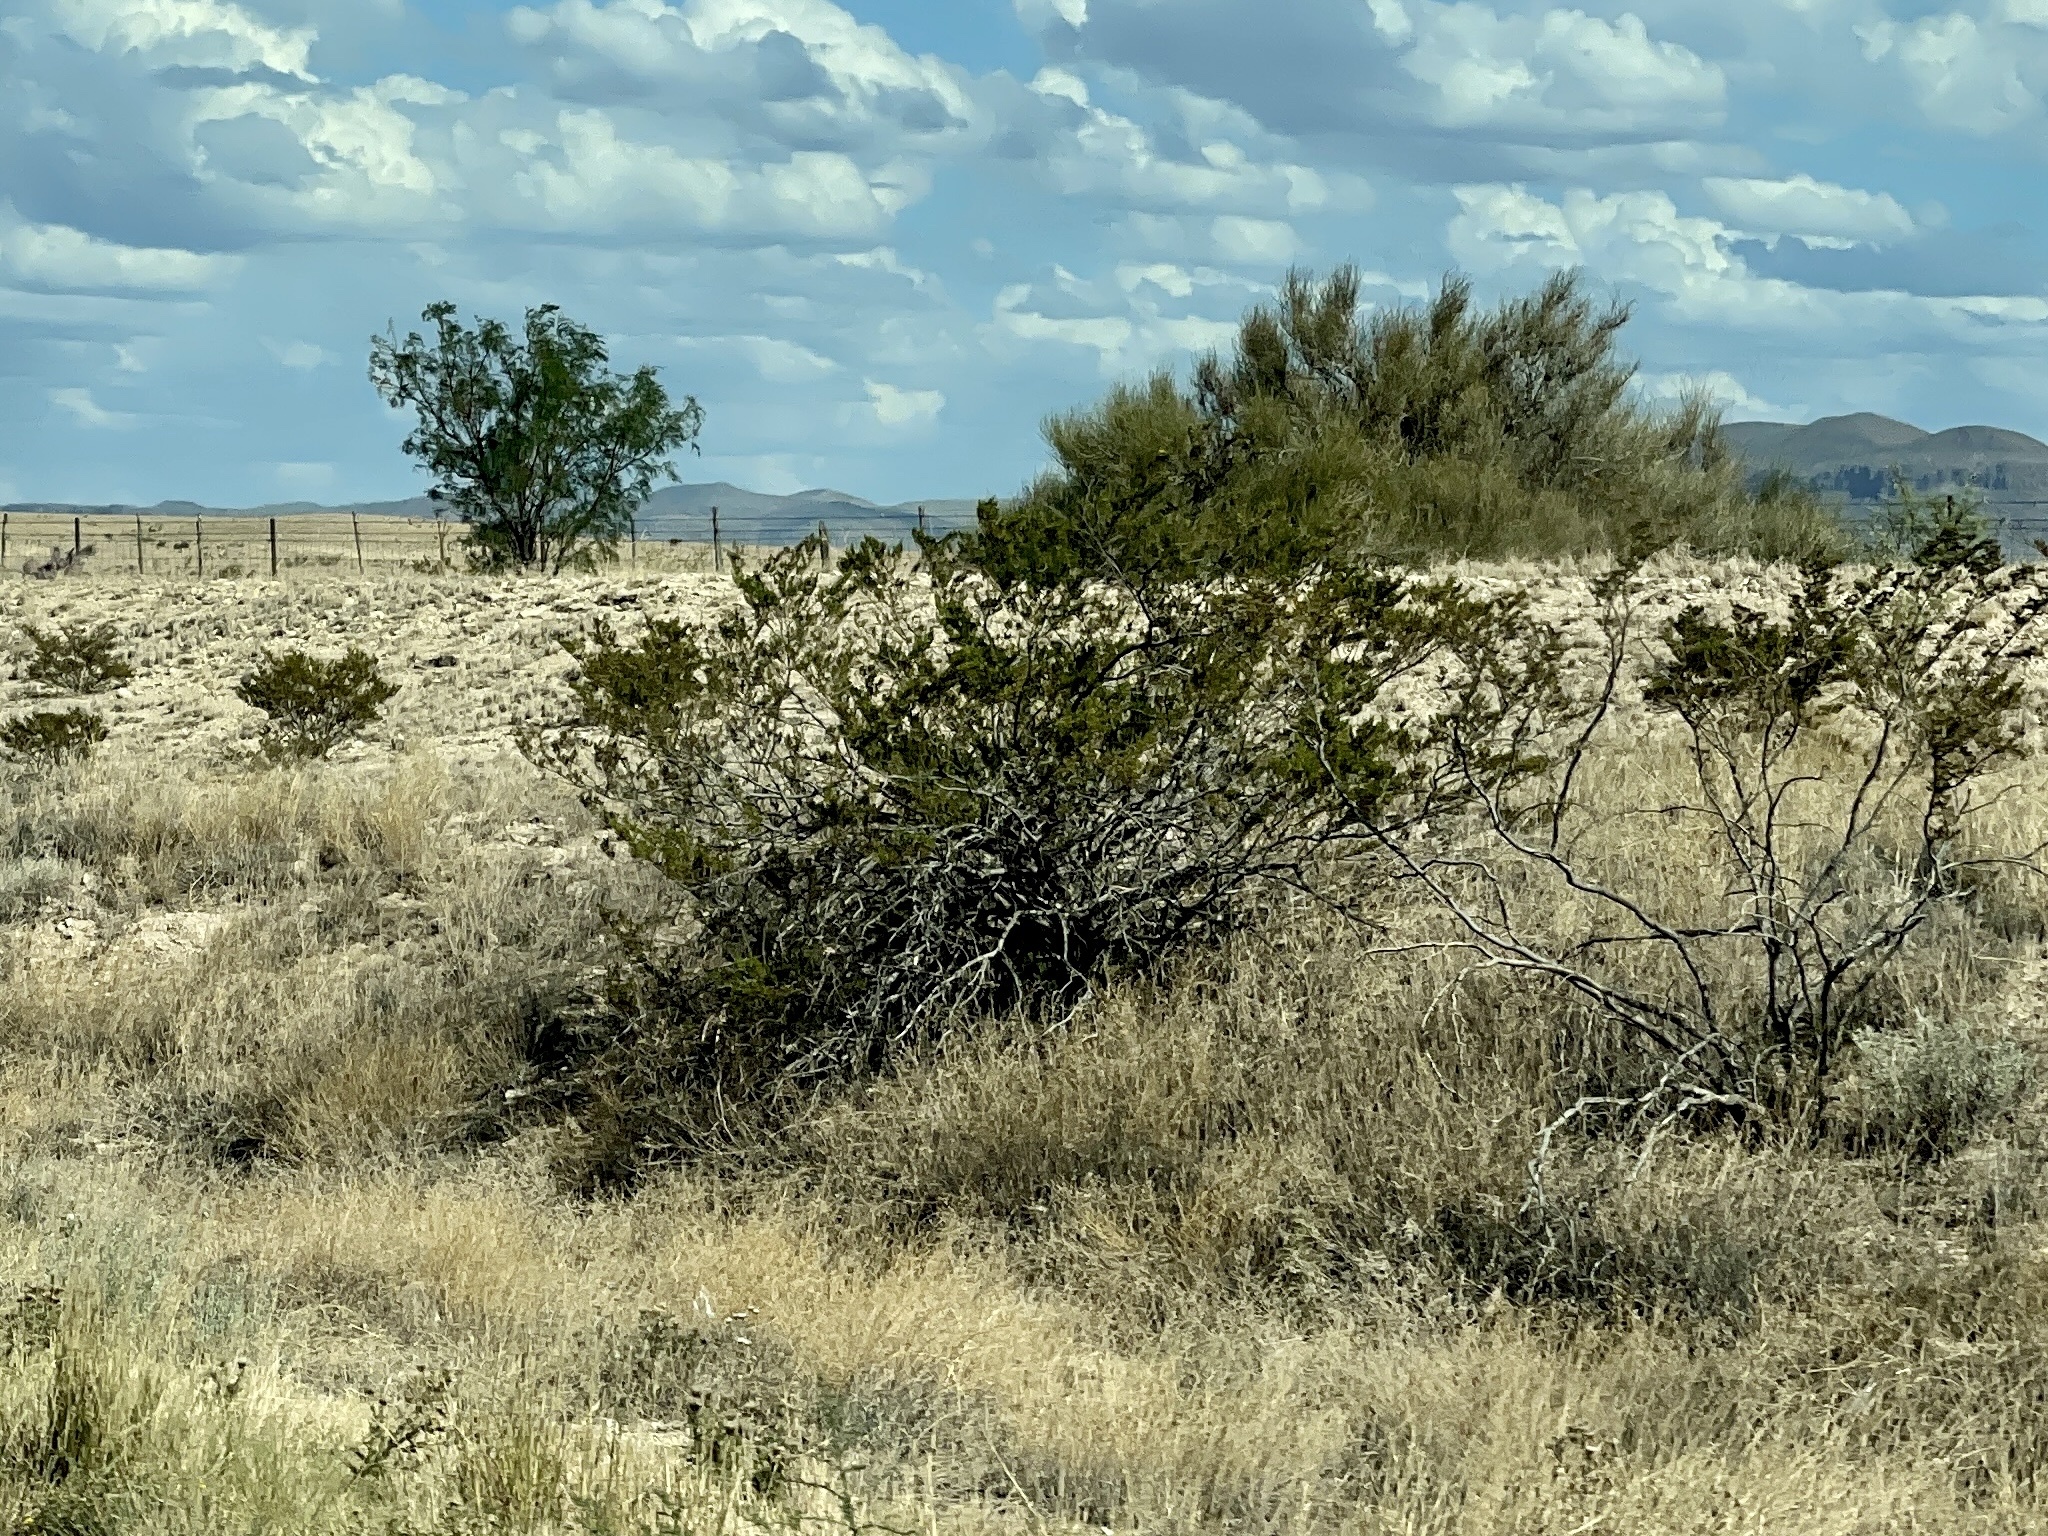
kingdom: Plantae
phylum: Tracheophyta
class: Magnoliopsida
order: Zygophyllales
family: Zygophyllaceae
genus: Larrea
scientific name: Larrea tridentata
